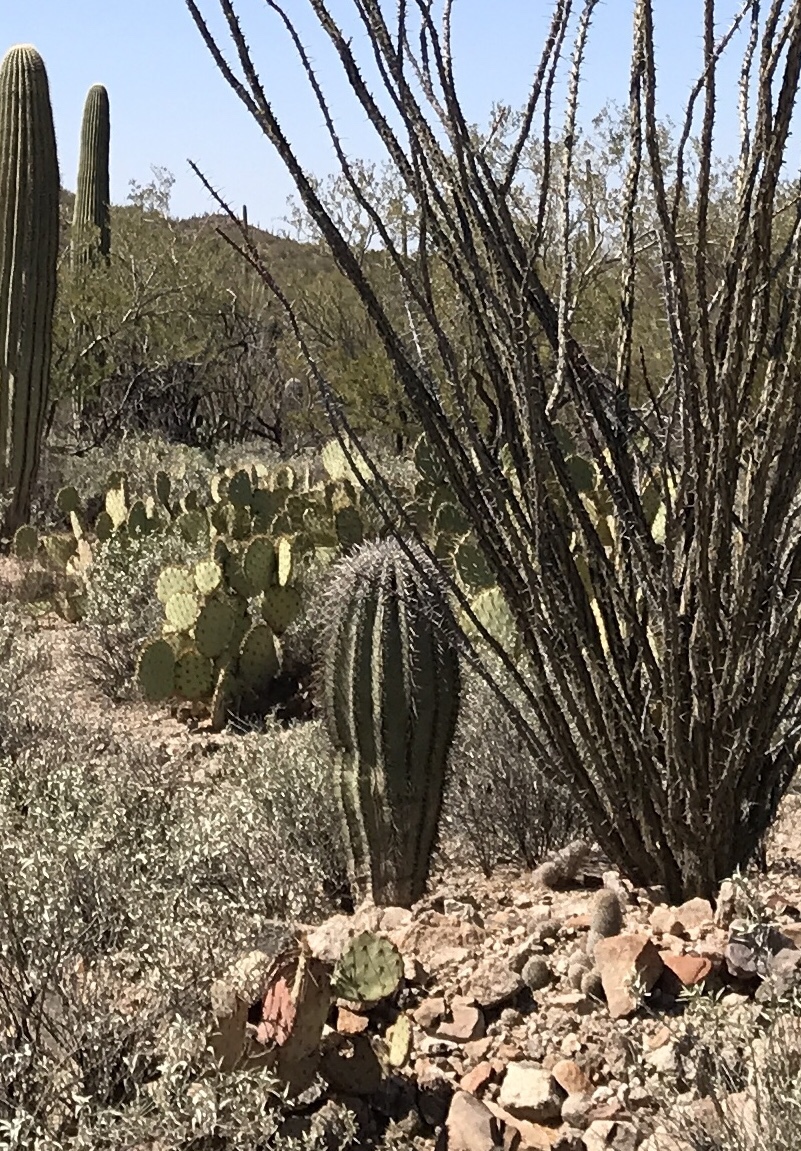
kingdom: Plantae
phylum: Tracheophyta
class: Magnoliopsida
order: Caryophyllales
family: Cactaceae
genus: Carnegiea
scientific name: Carnegiea gigantea
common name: Saguaro
